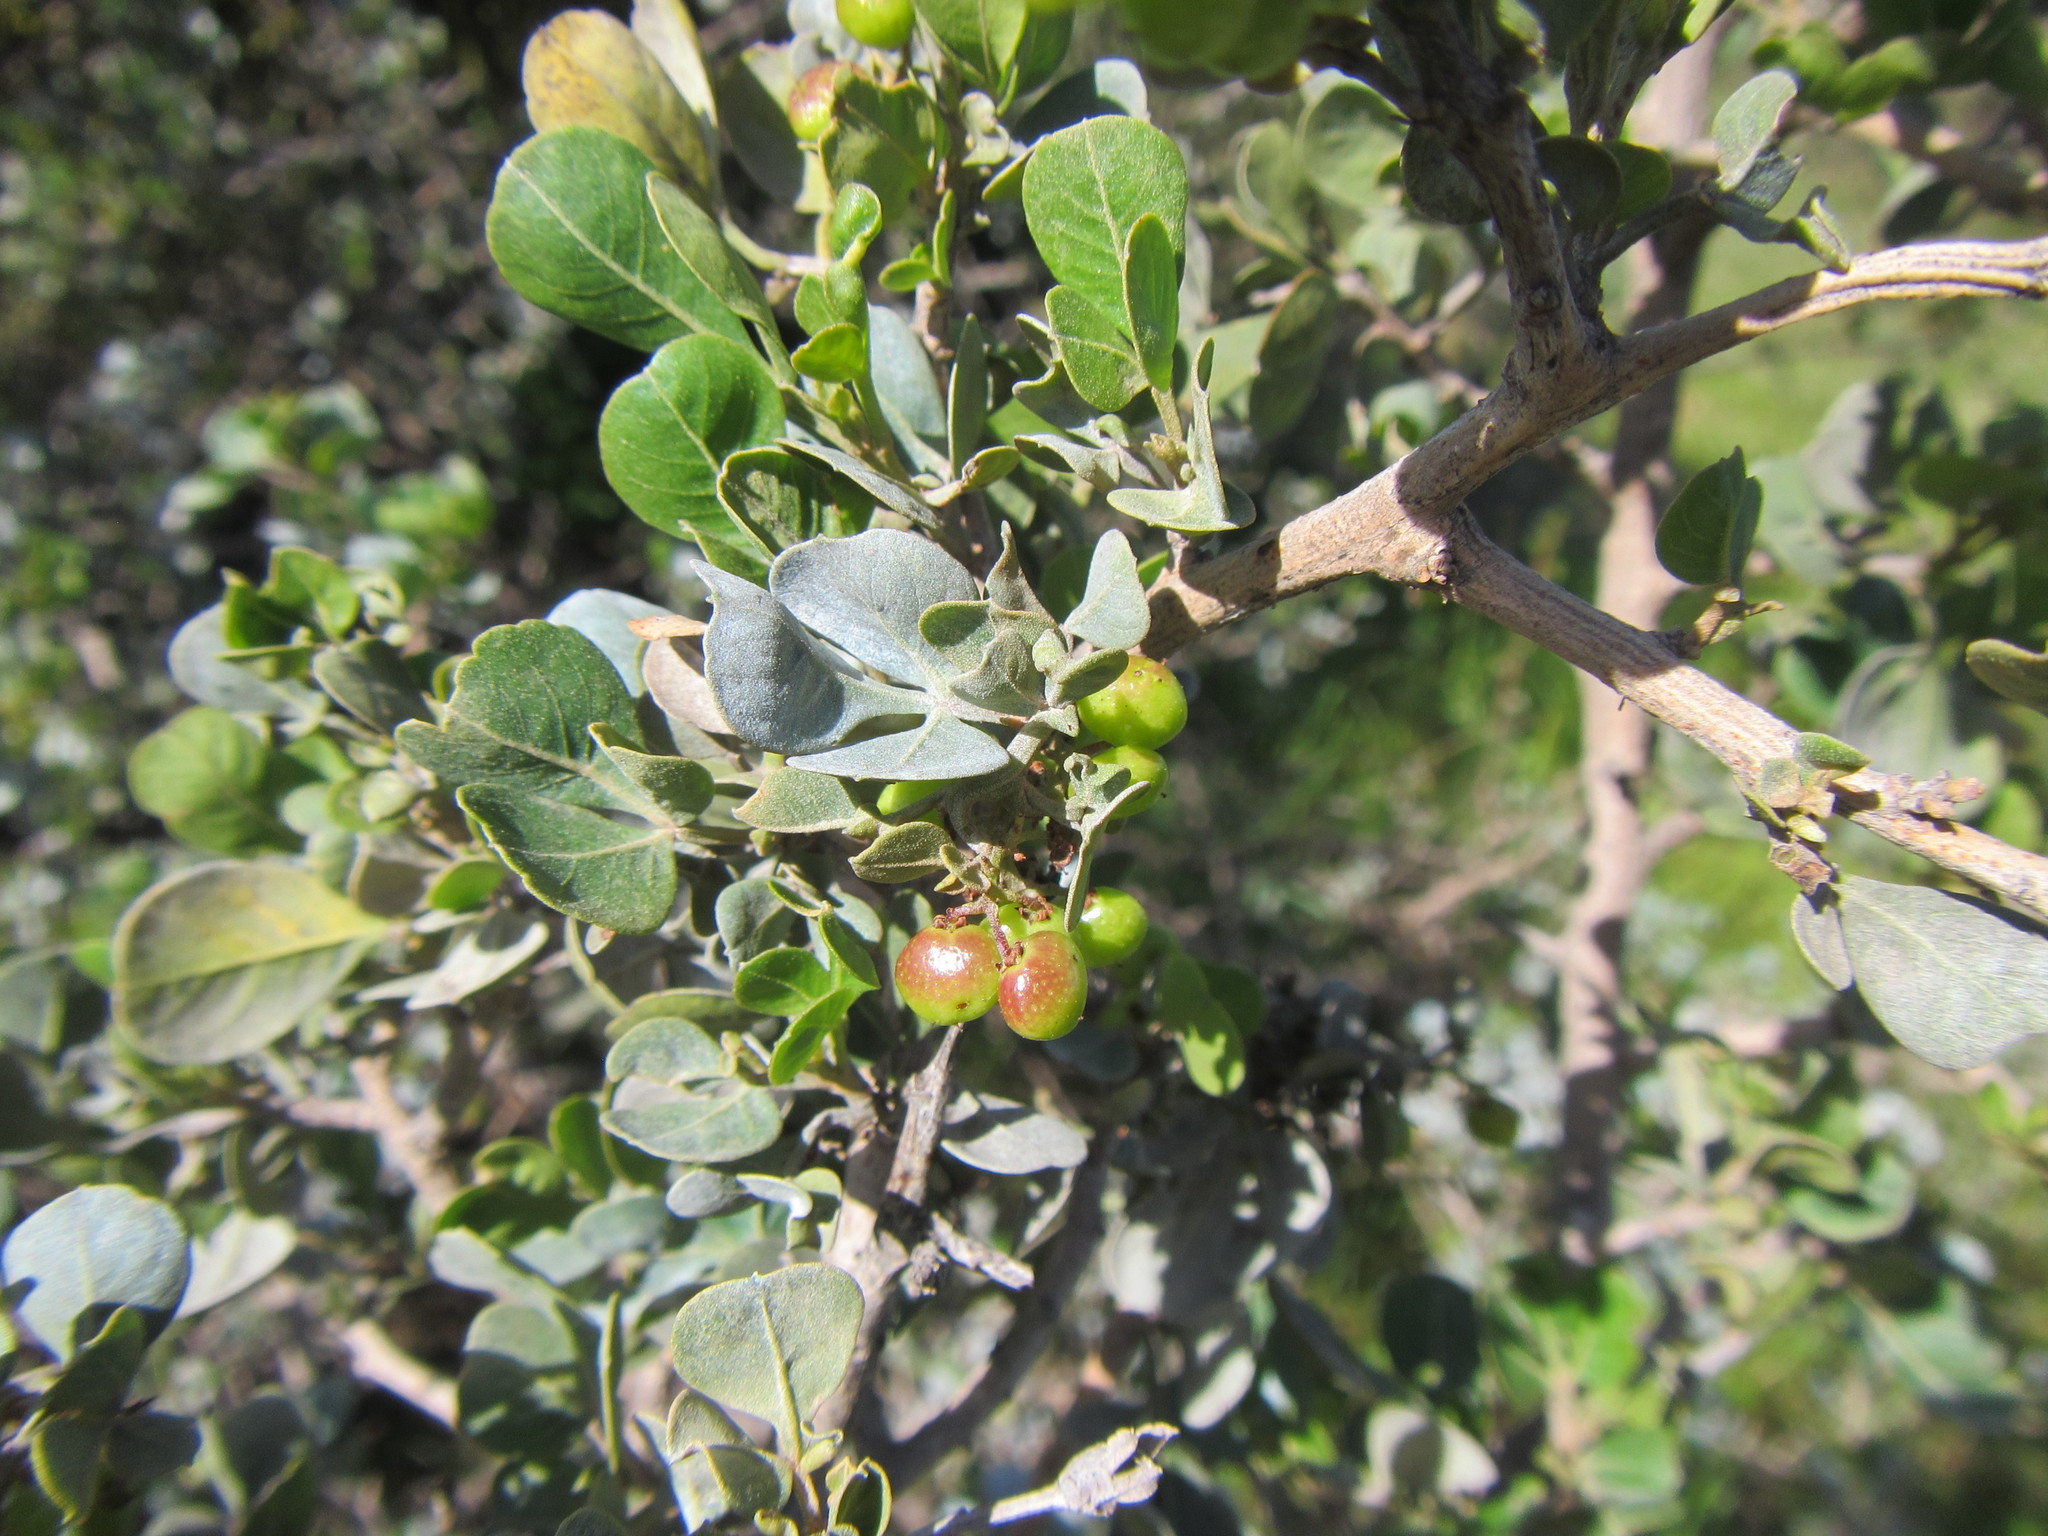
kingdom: Plantae
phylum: Tracheophyta
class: Magnoliopsida
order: Sapindales
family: Anacardiaceae
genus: Searsia
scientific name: Searsia glauca
